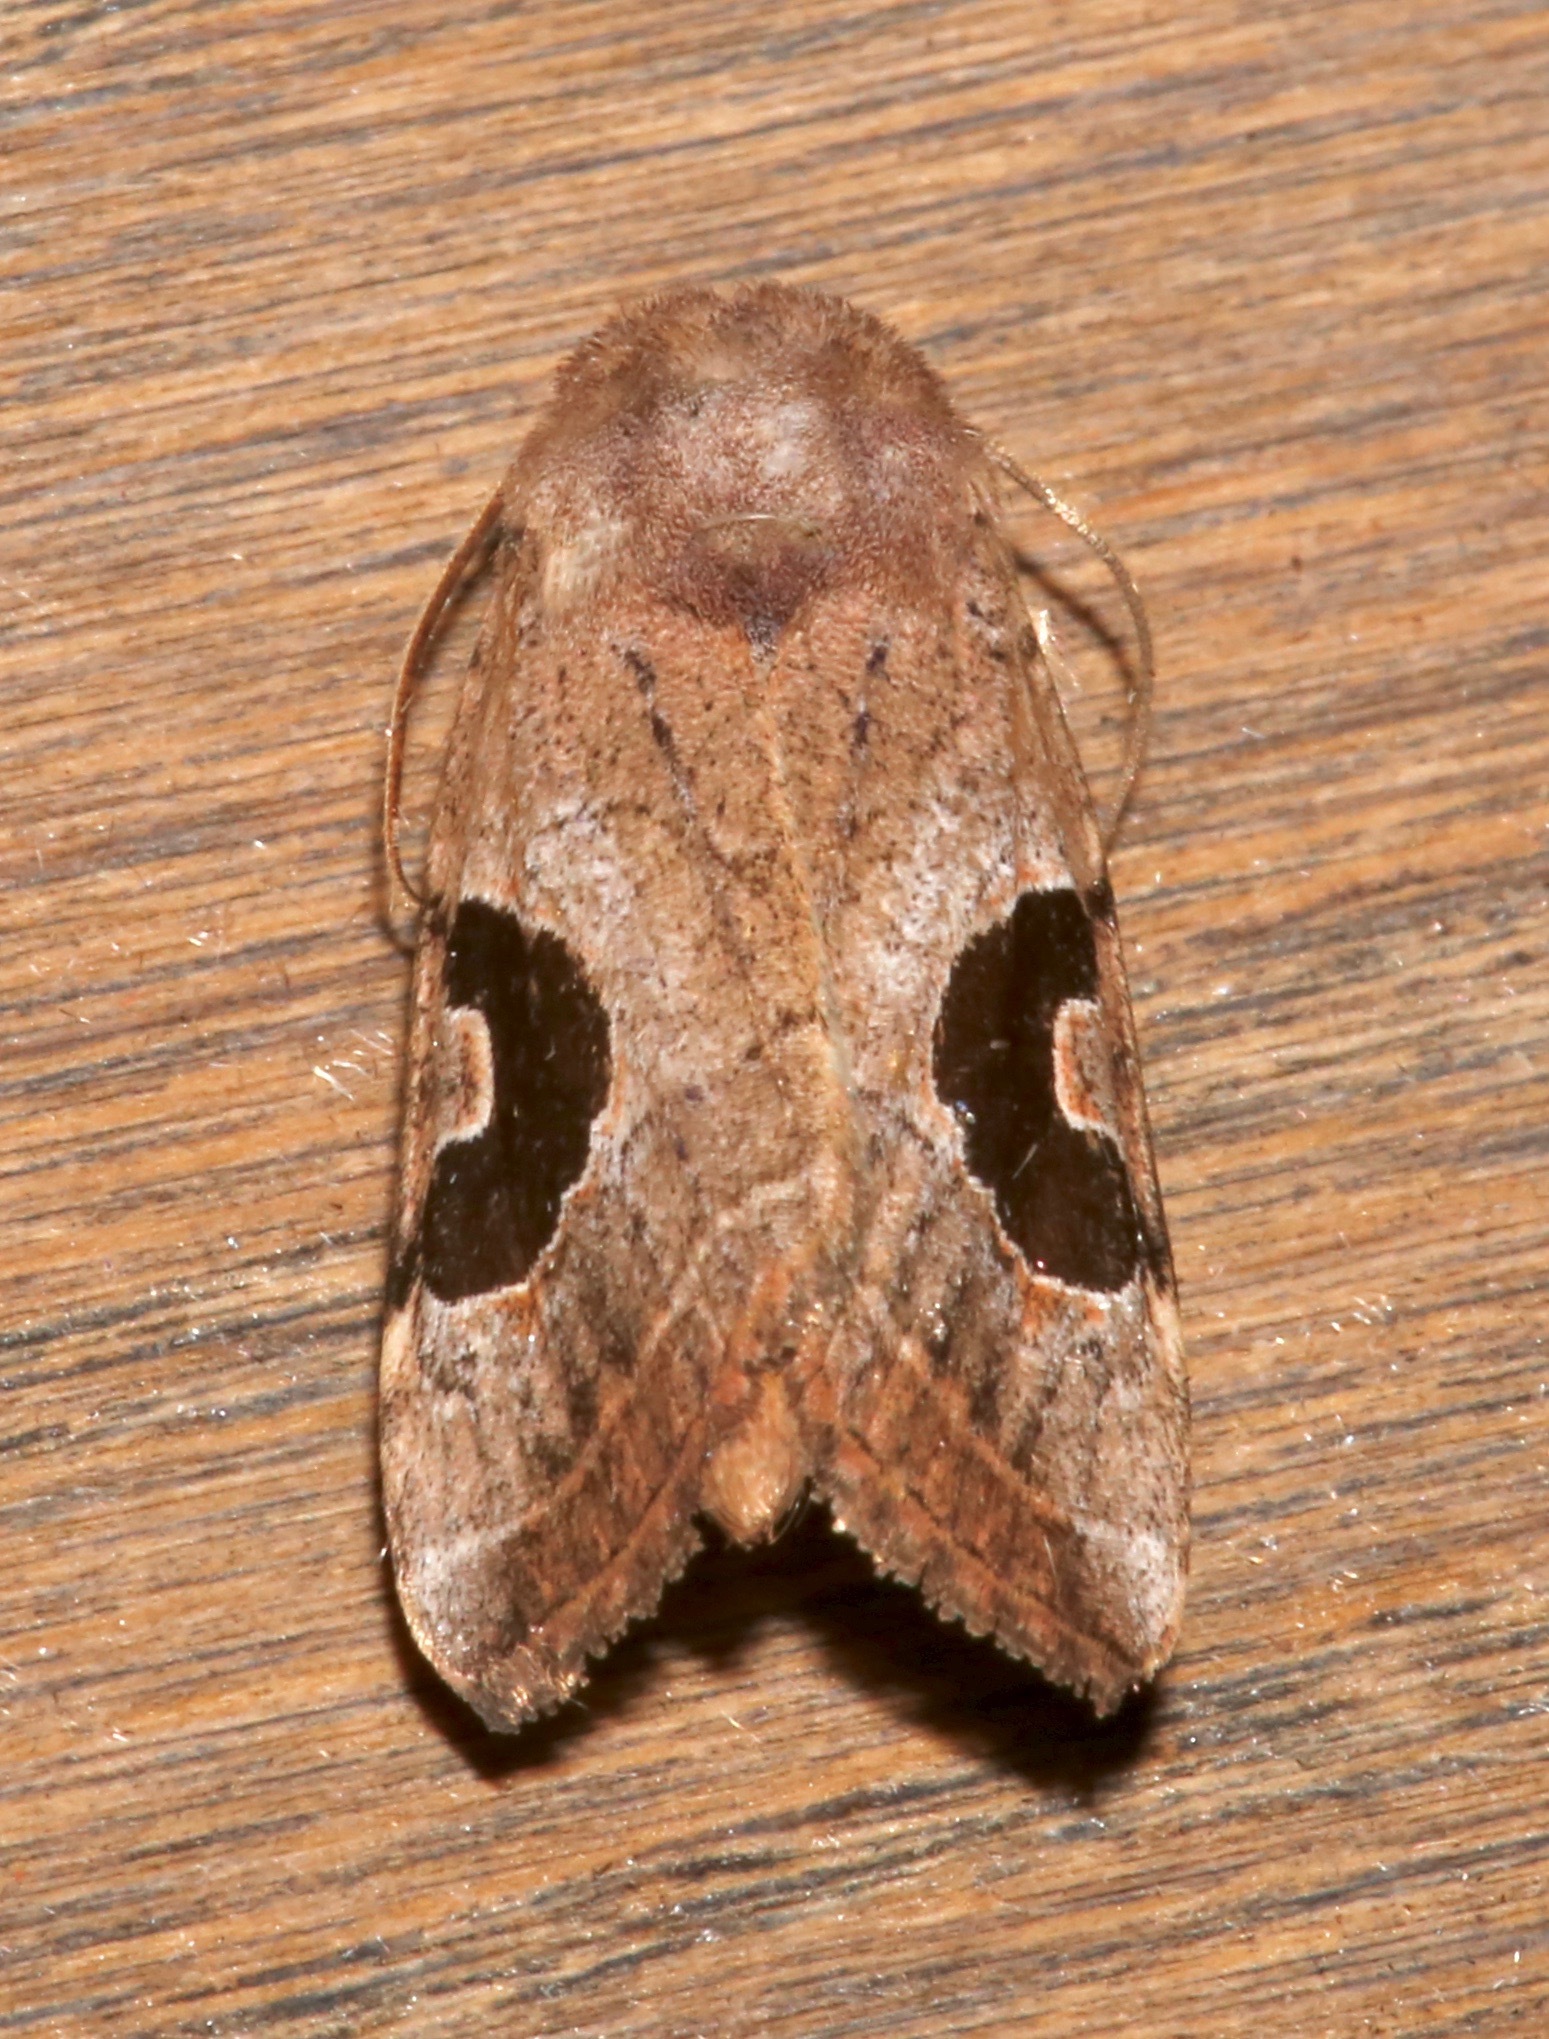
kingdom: Animalia
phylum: Arthropoda
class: Insecta
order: Lepidoptera
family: Noctuidae
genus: Eriopyga
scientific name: Eriopyga lunata
